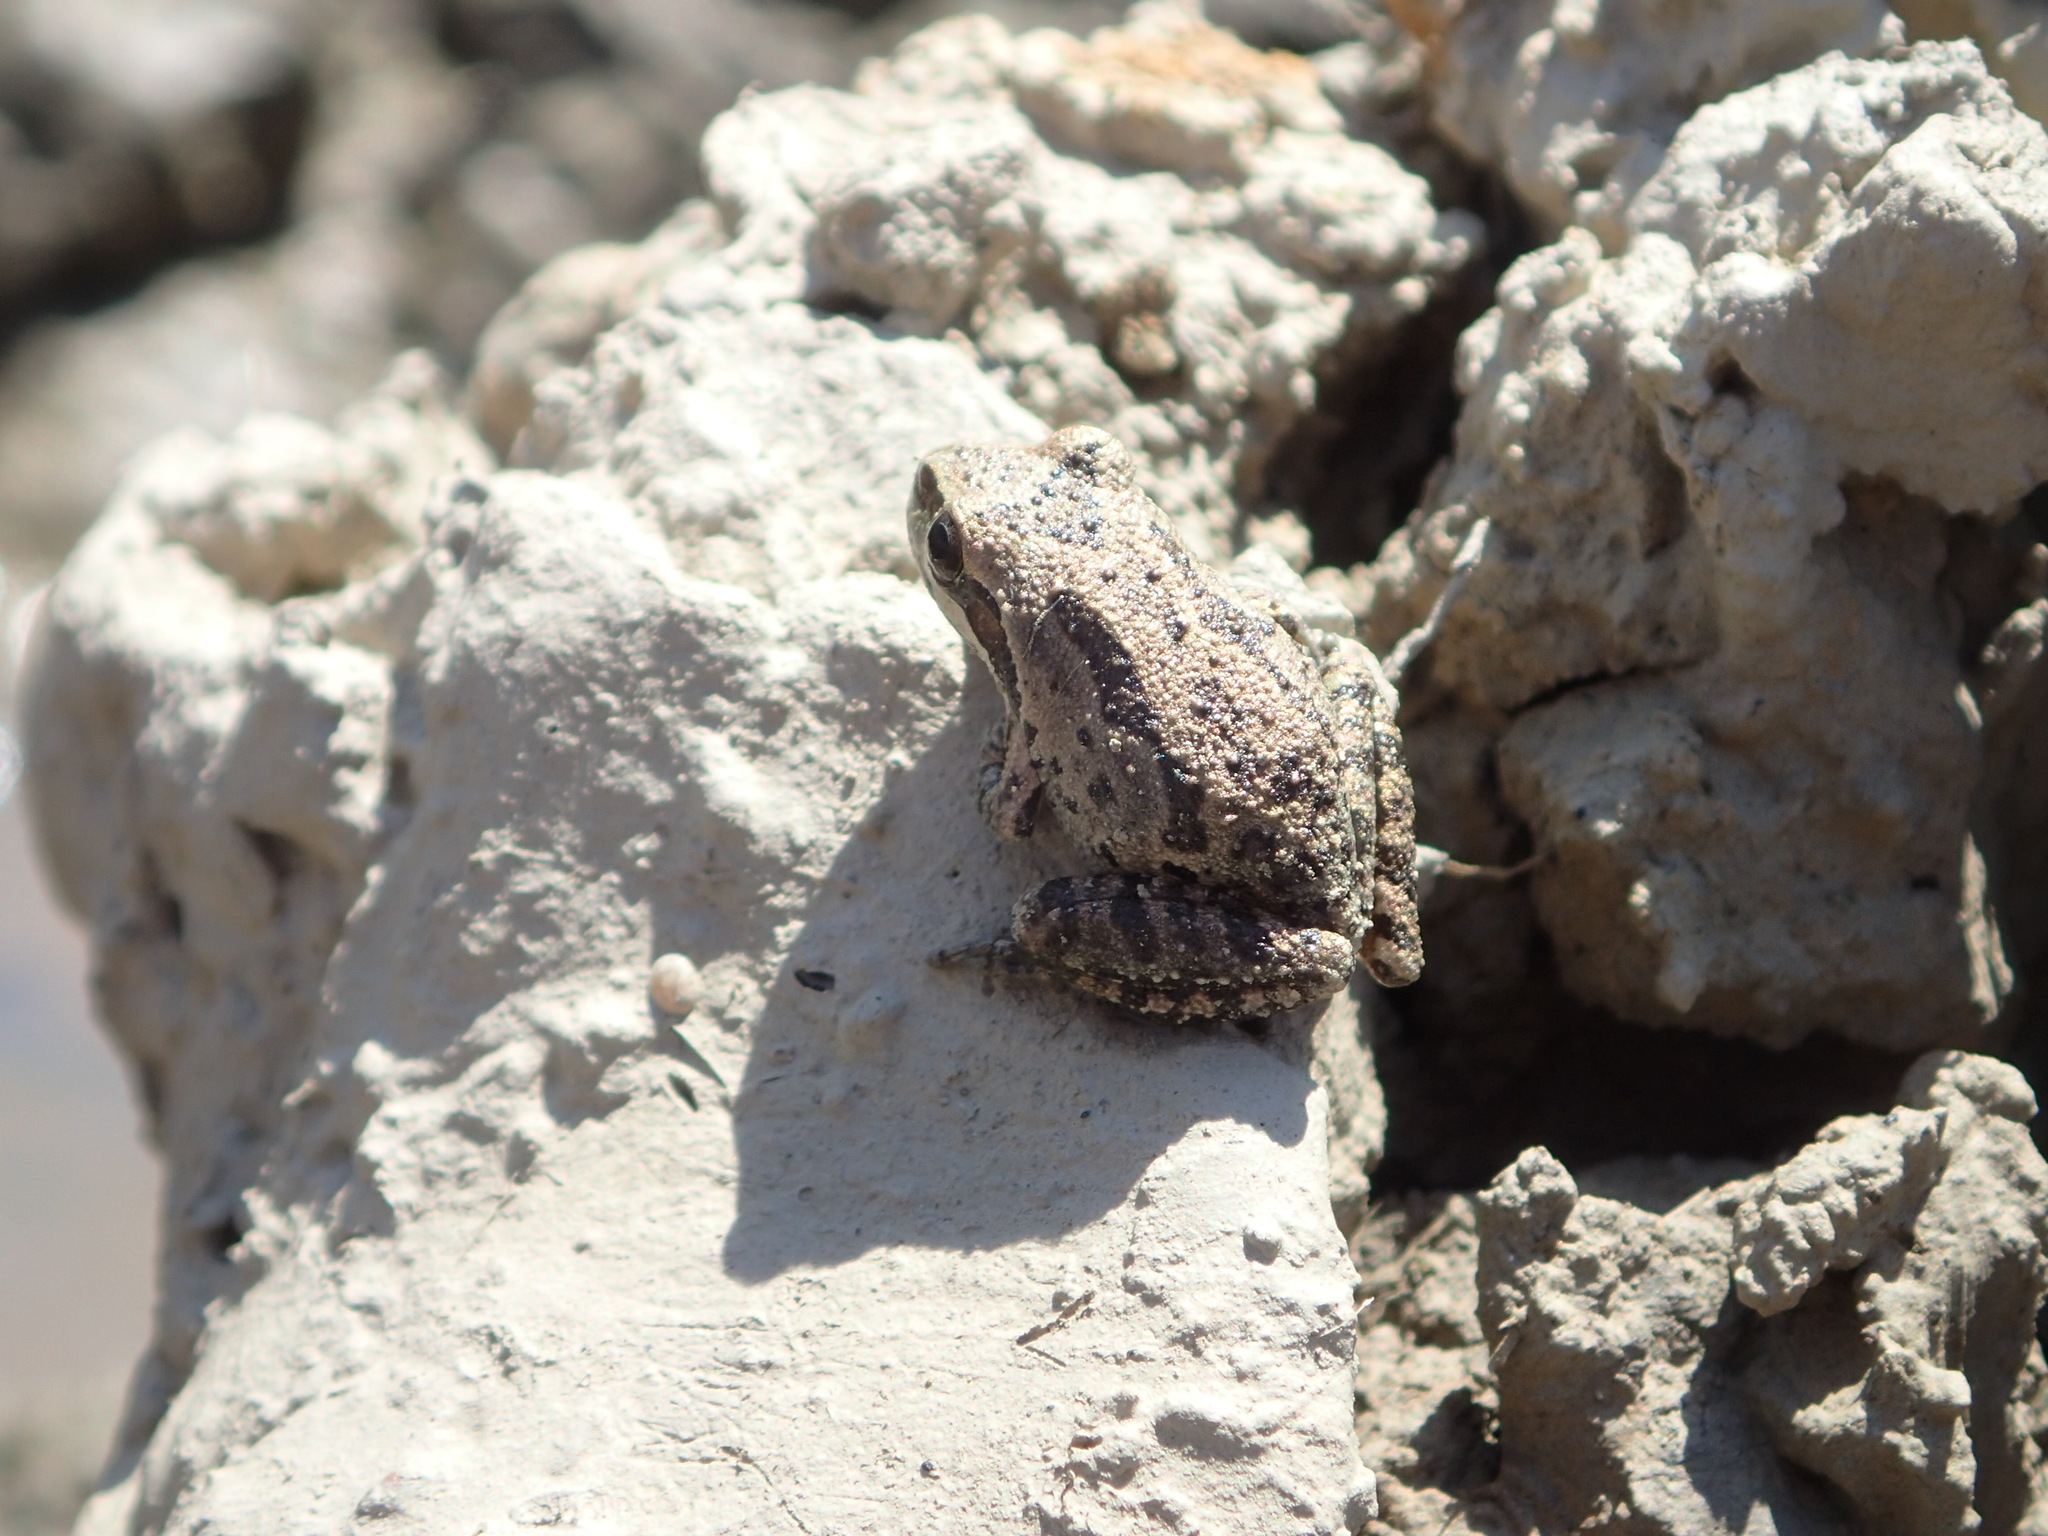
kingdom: Animalia
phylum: Chordata
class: Amphibia
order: Anura
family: Hylidae
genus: Pseudacris
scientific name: Pseudacris regilla
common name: Pacific chorus frog
